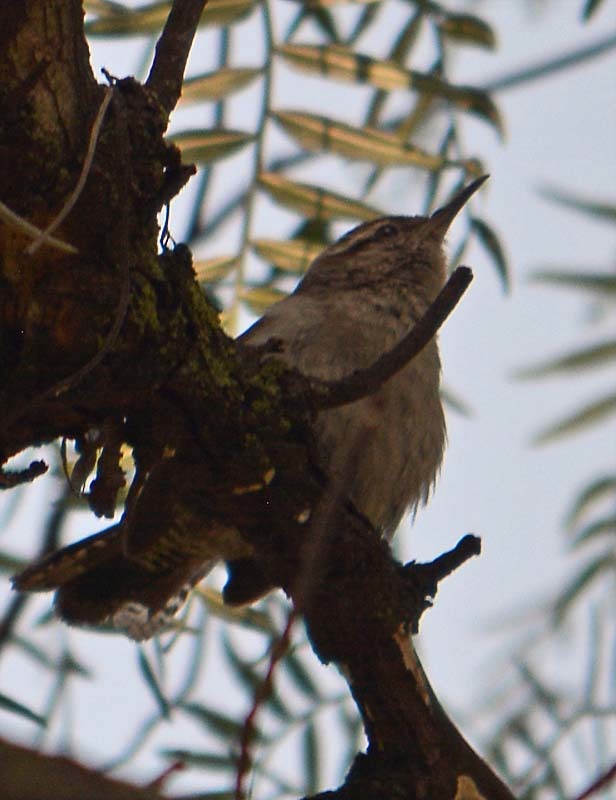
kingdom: Animalia
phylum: Chordata
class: Aves
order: Passeriformes
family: Troglodytidae
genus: Thryomanes
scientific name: Thryomanes bewickii
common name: Bewick's wren
